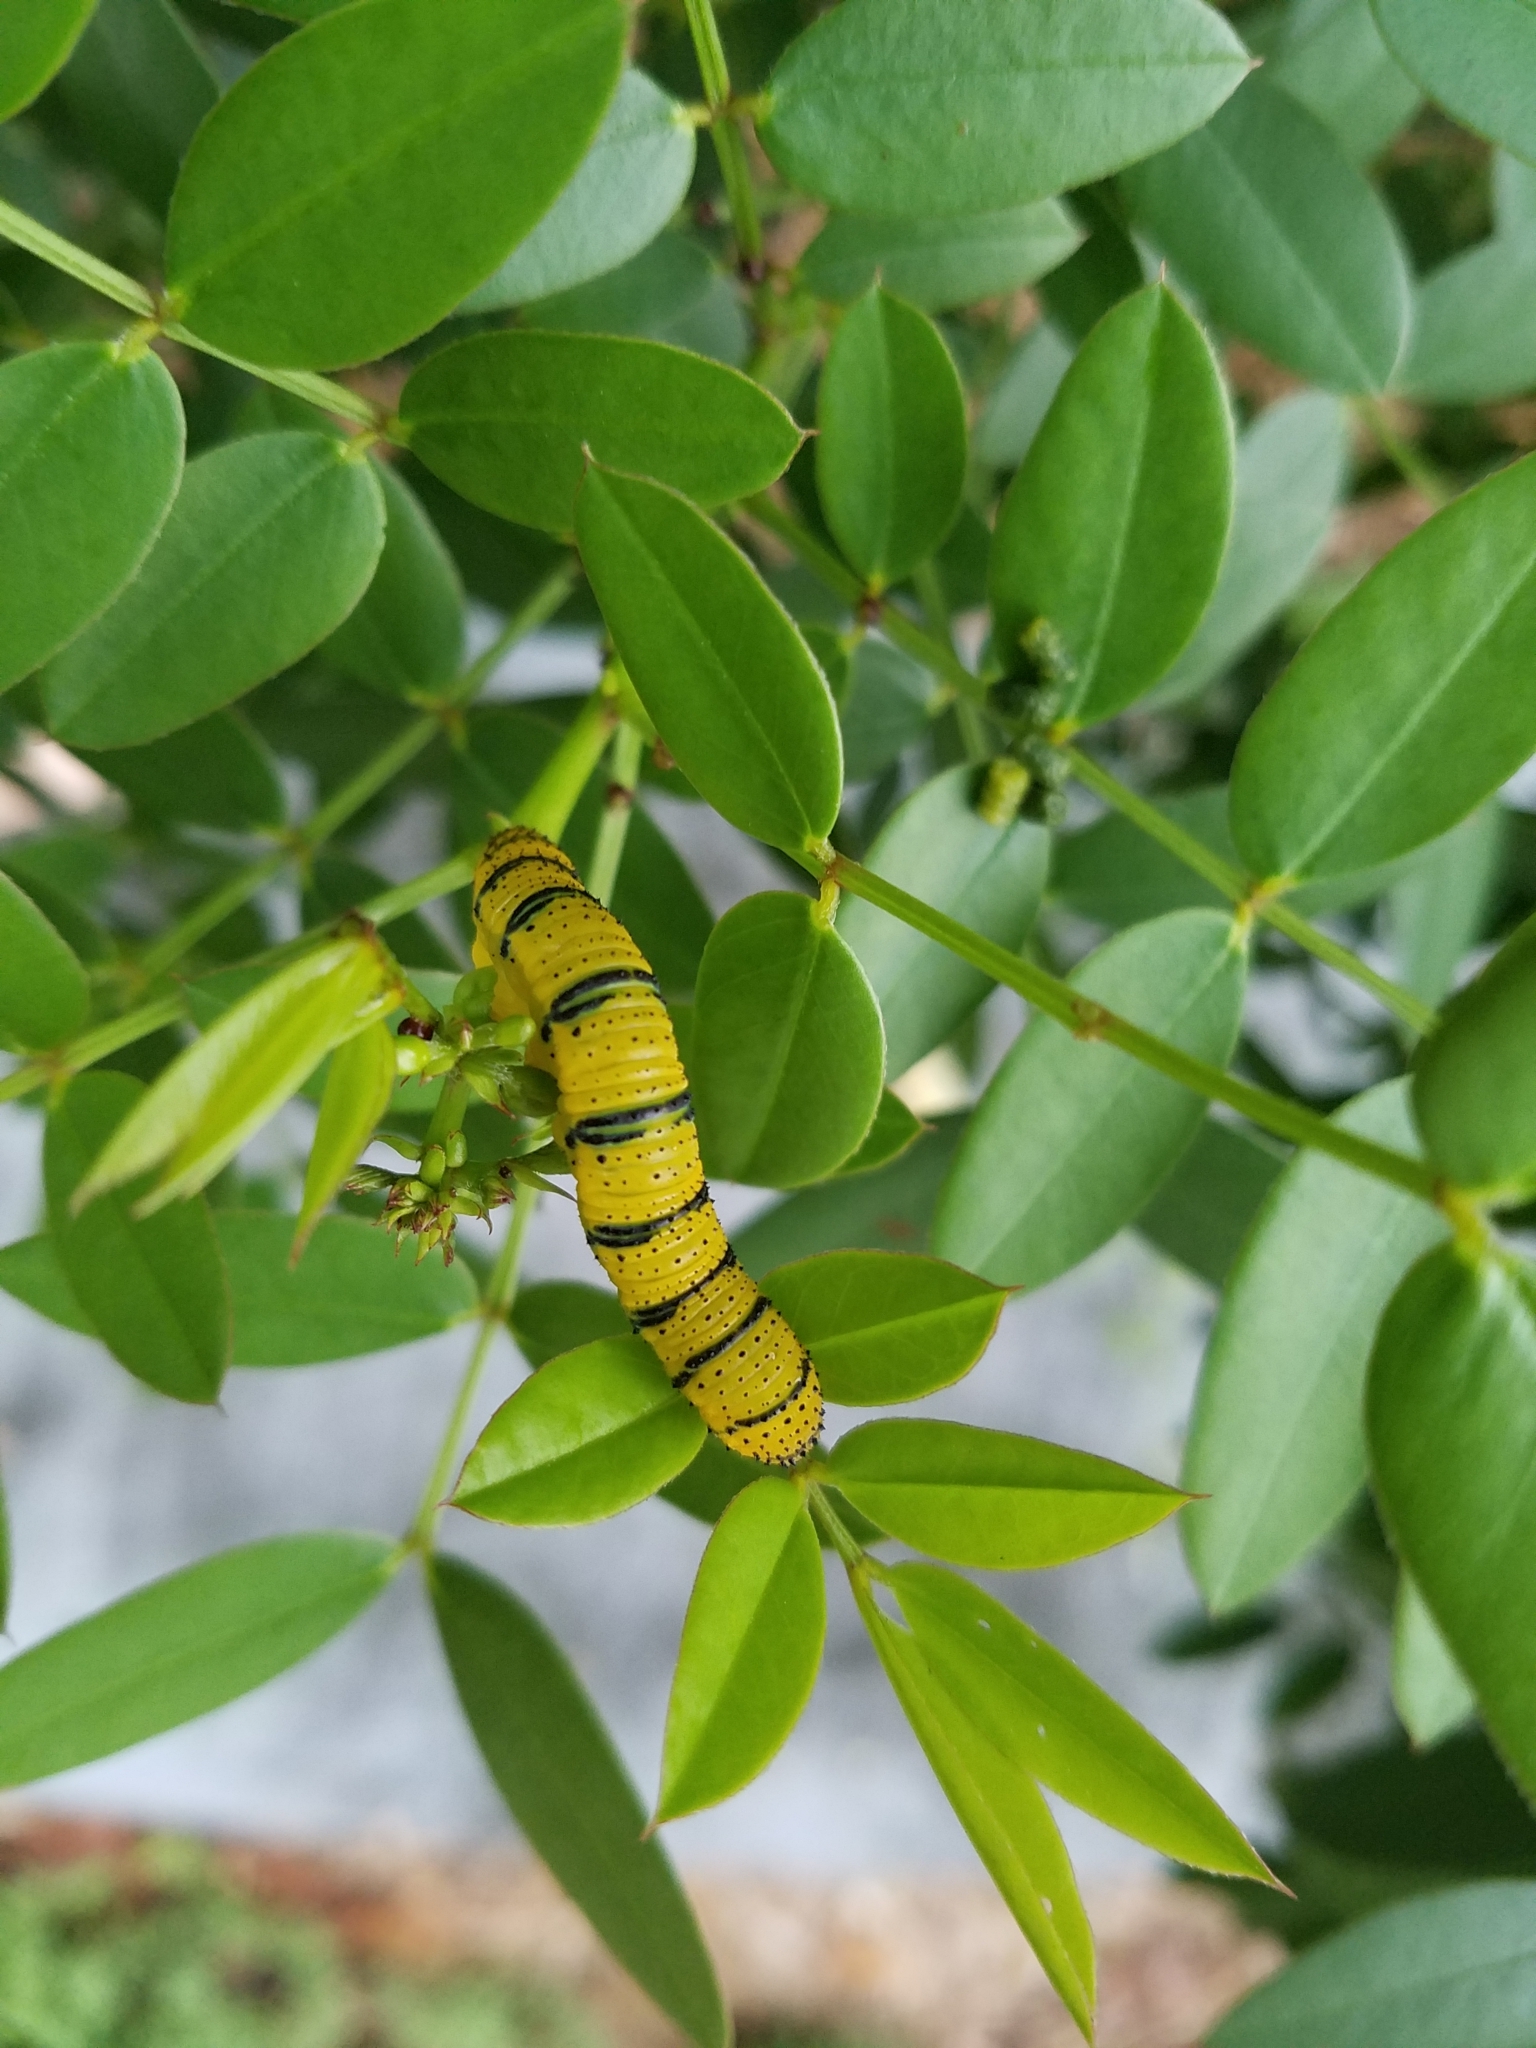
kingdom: Animalia
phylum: Arthropoda
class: Insecta
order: Lepidoptera
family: Pieridae
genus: Phoebis
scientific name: Phoebis philea
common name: Orange-barred giant sulphur
